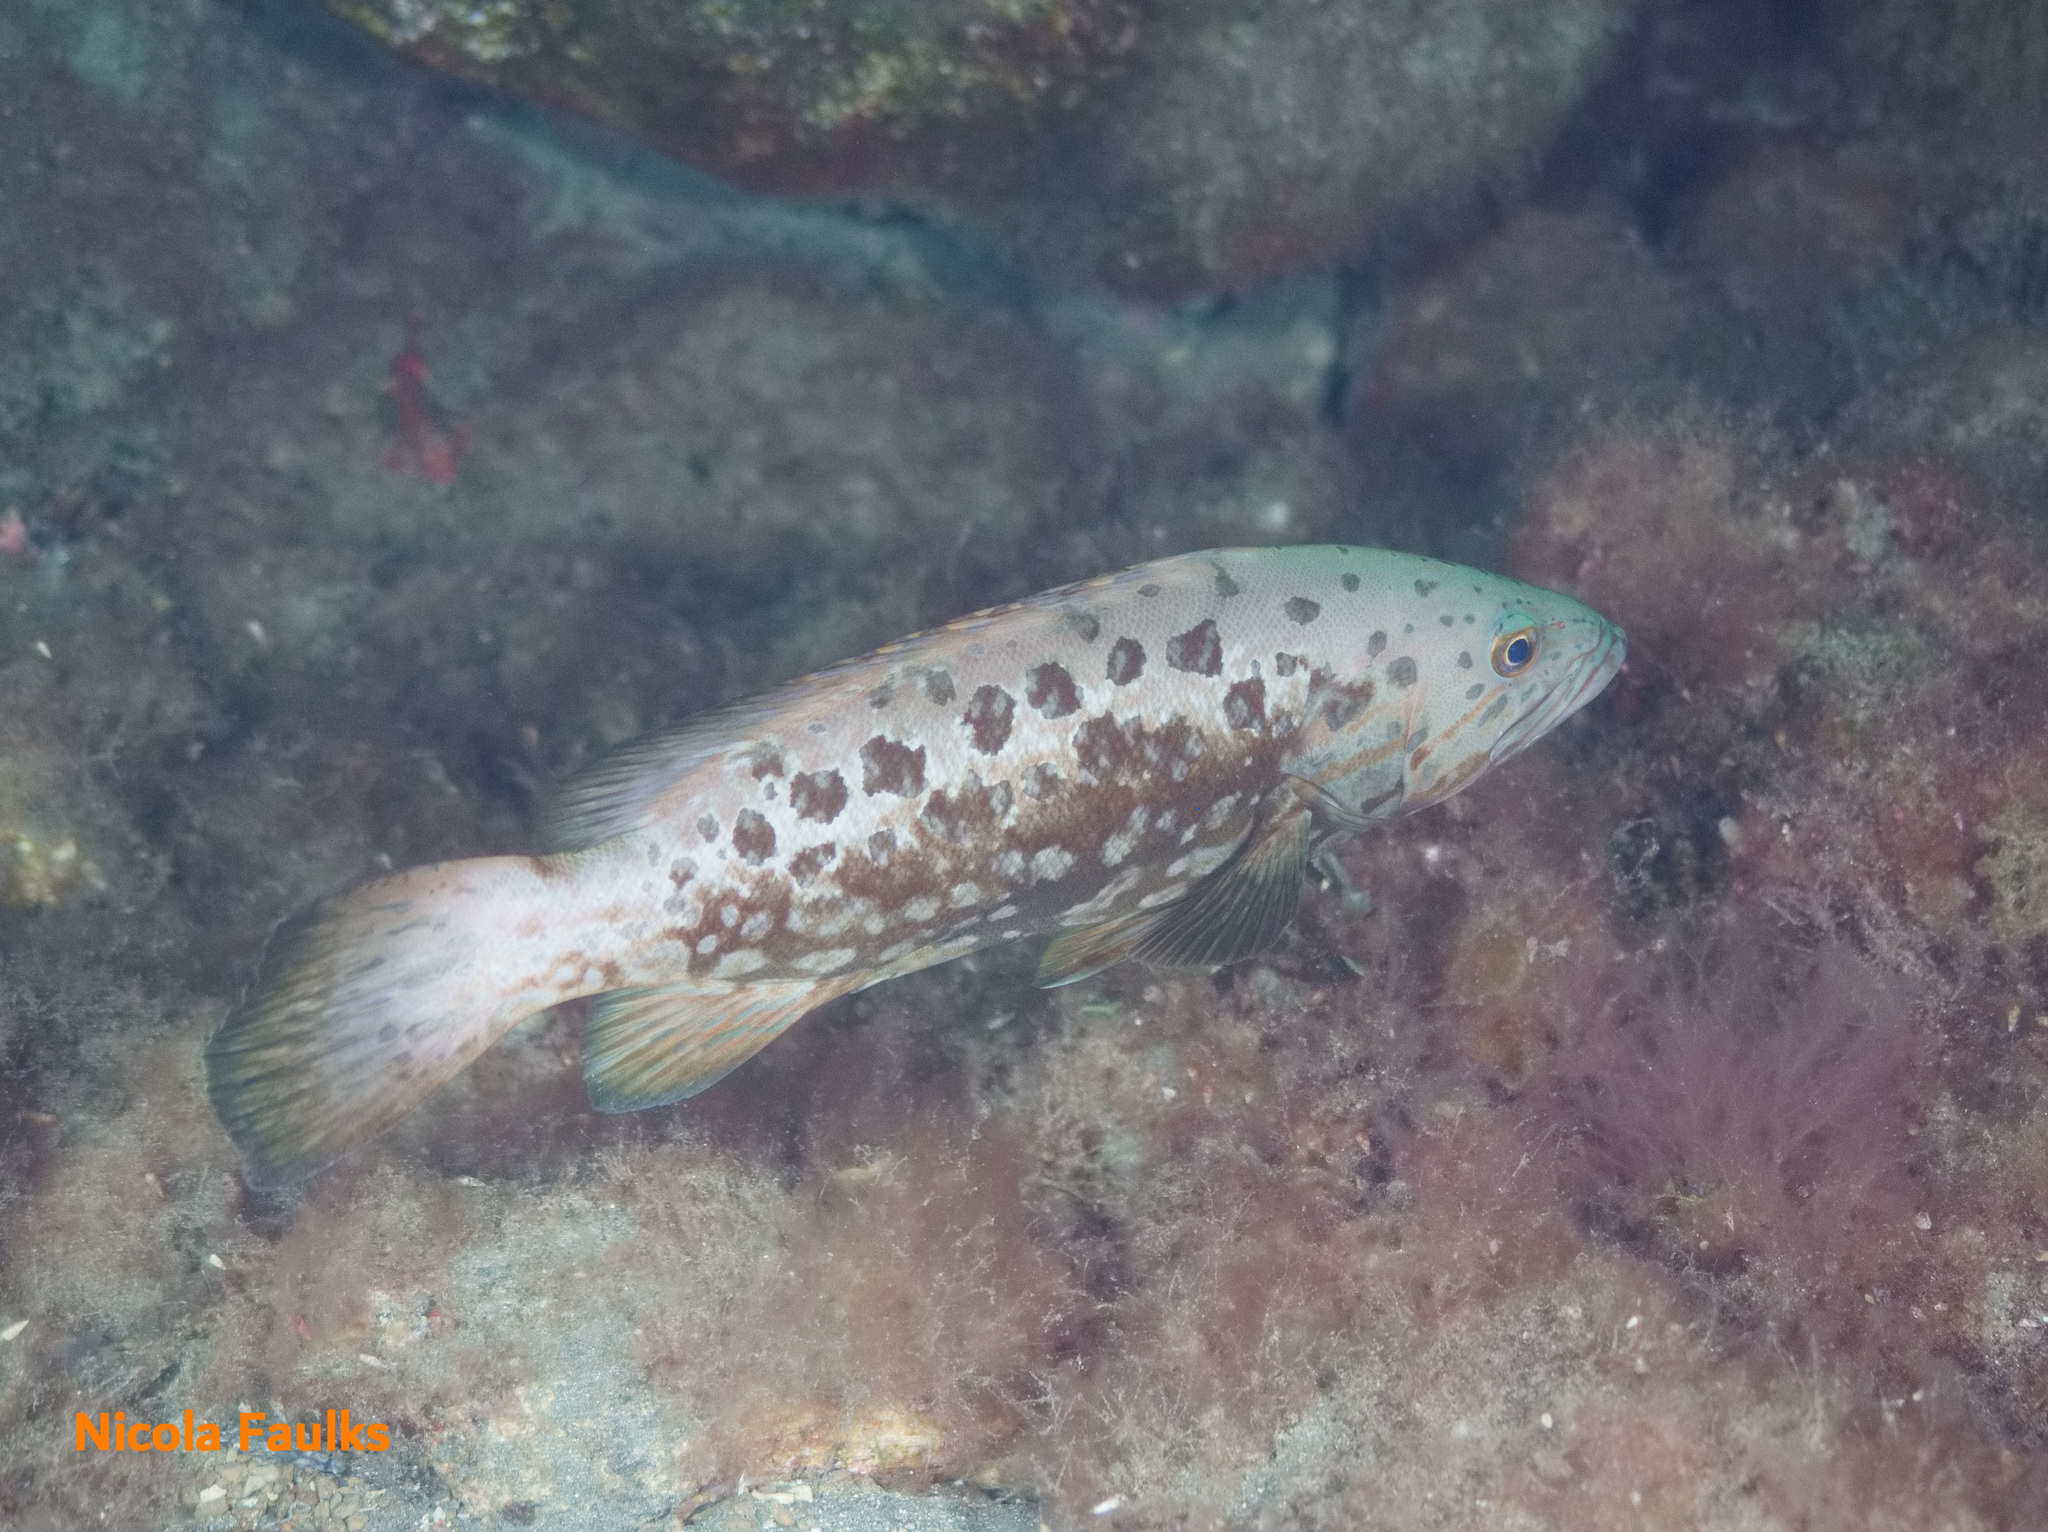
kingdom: Animalia
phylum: Chordata
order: Perciformes
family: Serranidae
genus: Mycteroperca
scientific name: Mycteroperca fusca
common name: Island grouper
